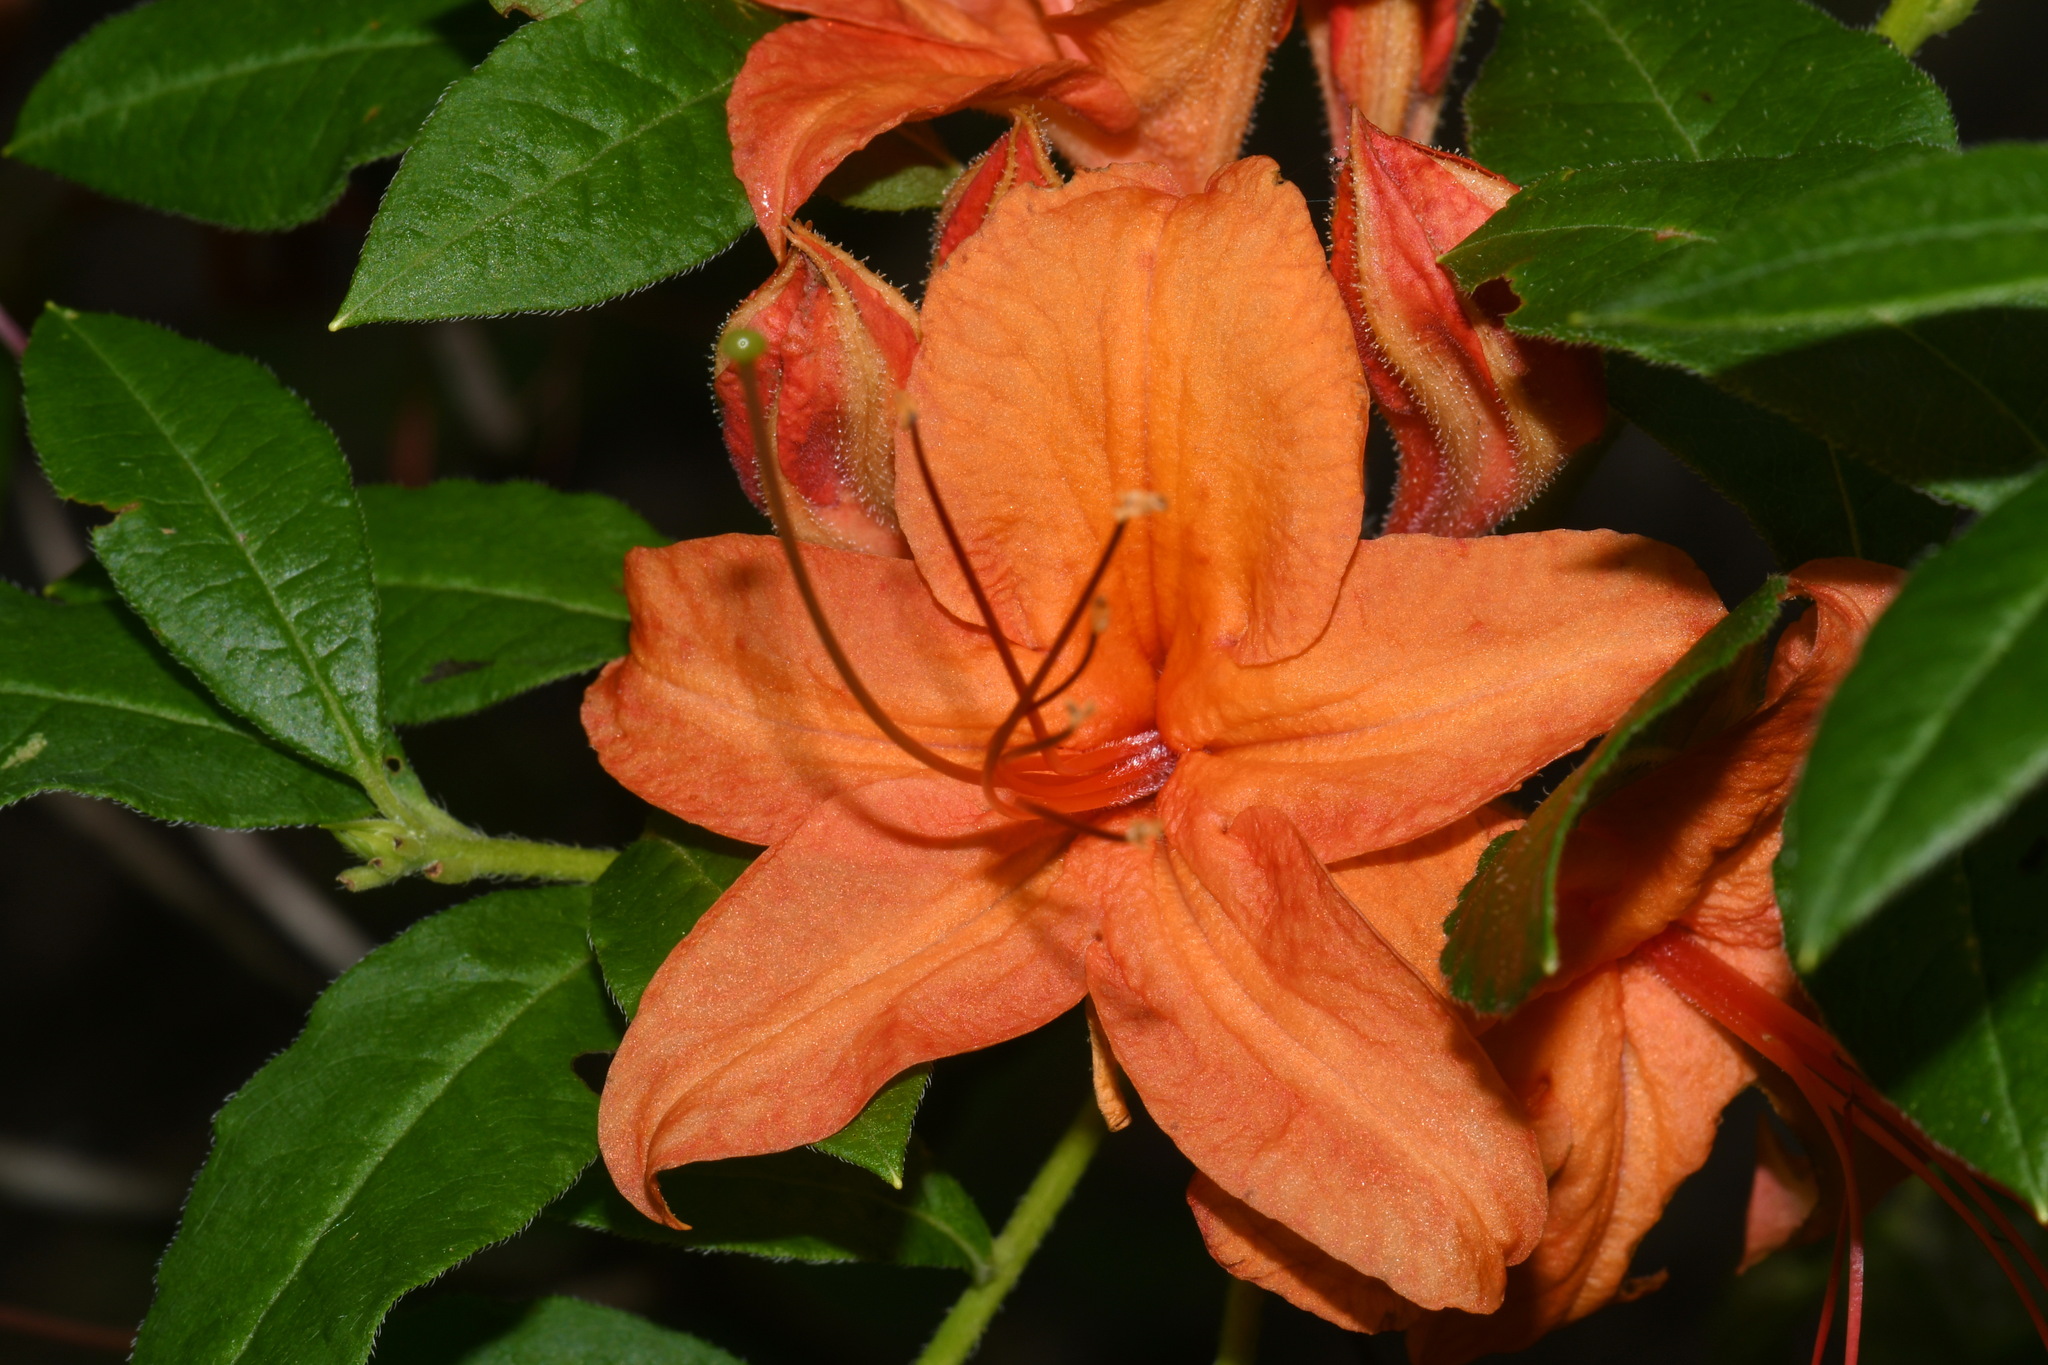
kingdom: Plantae
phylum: Tracheophyta
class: Magnoliopsida
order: Ericales
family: Ericaceae
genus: Rhododendron
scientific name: Rhododendron cumberlandense
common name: Diploid flame azalea
